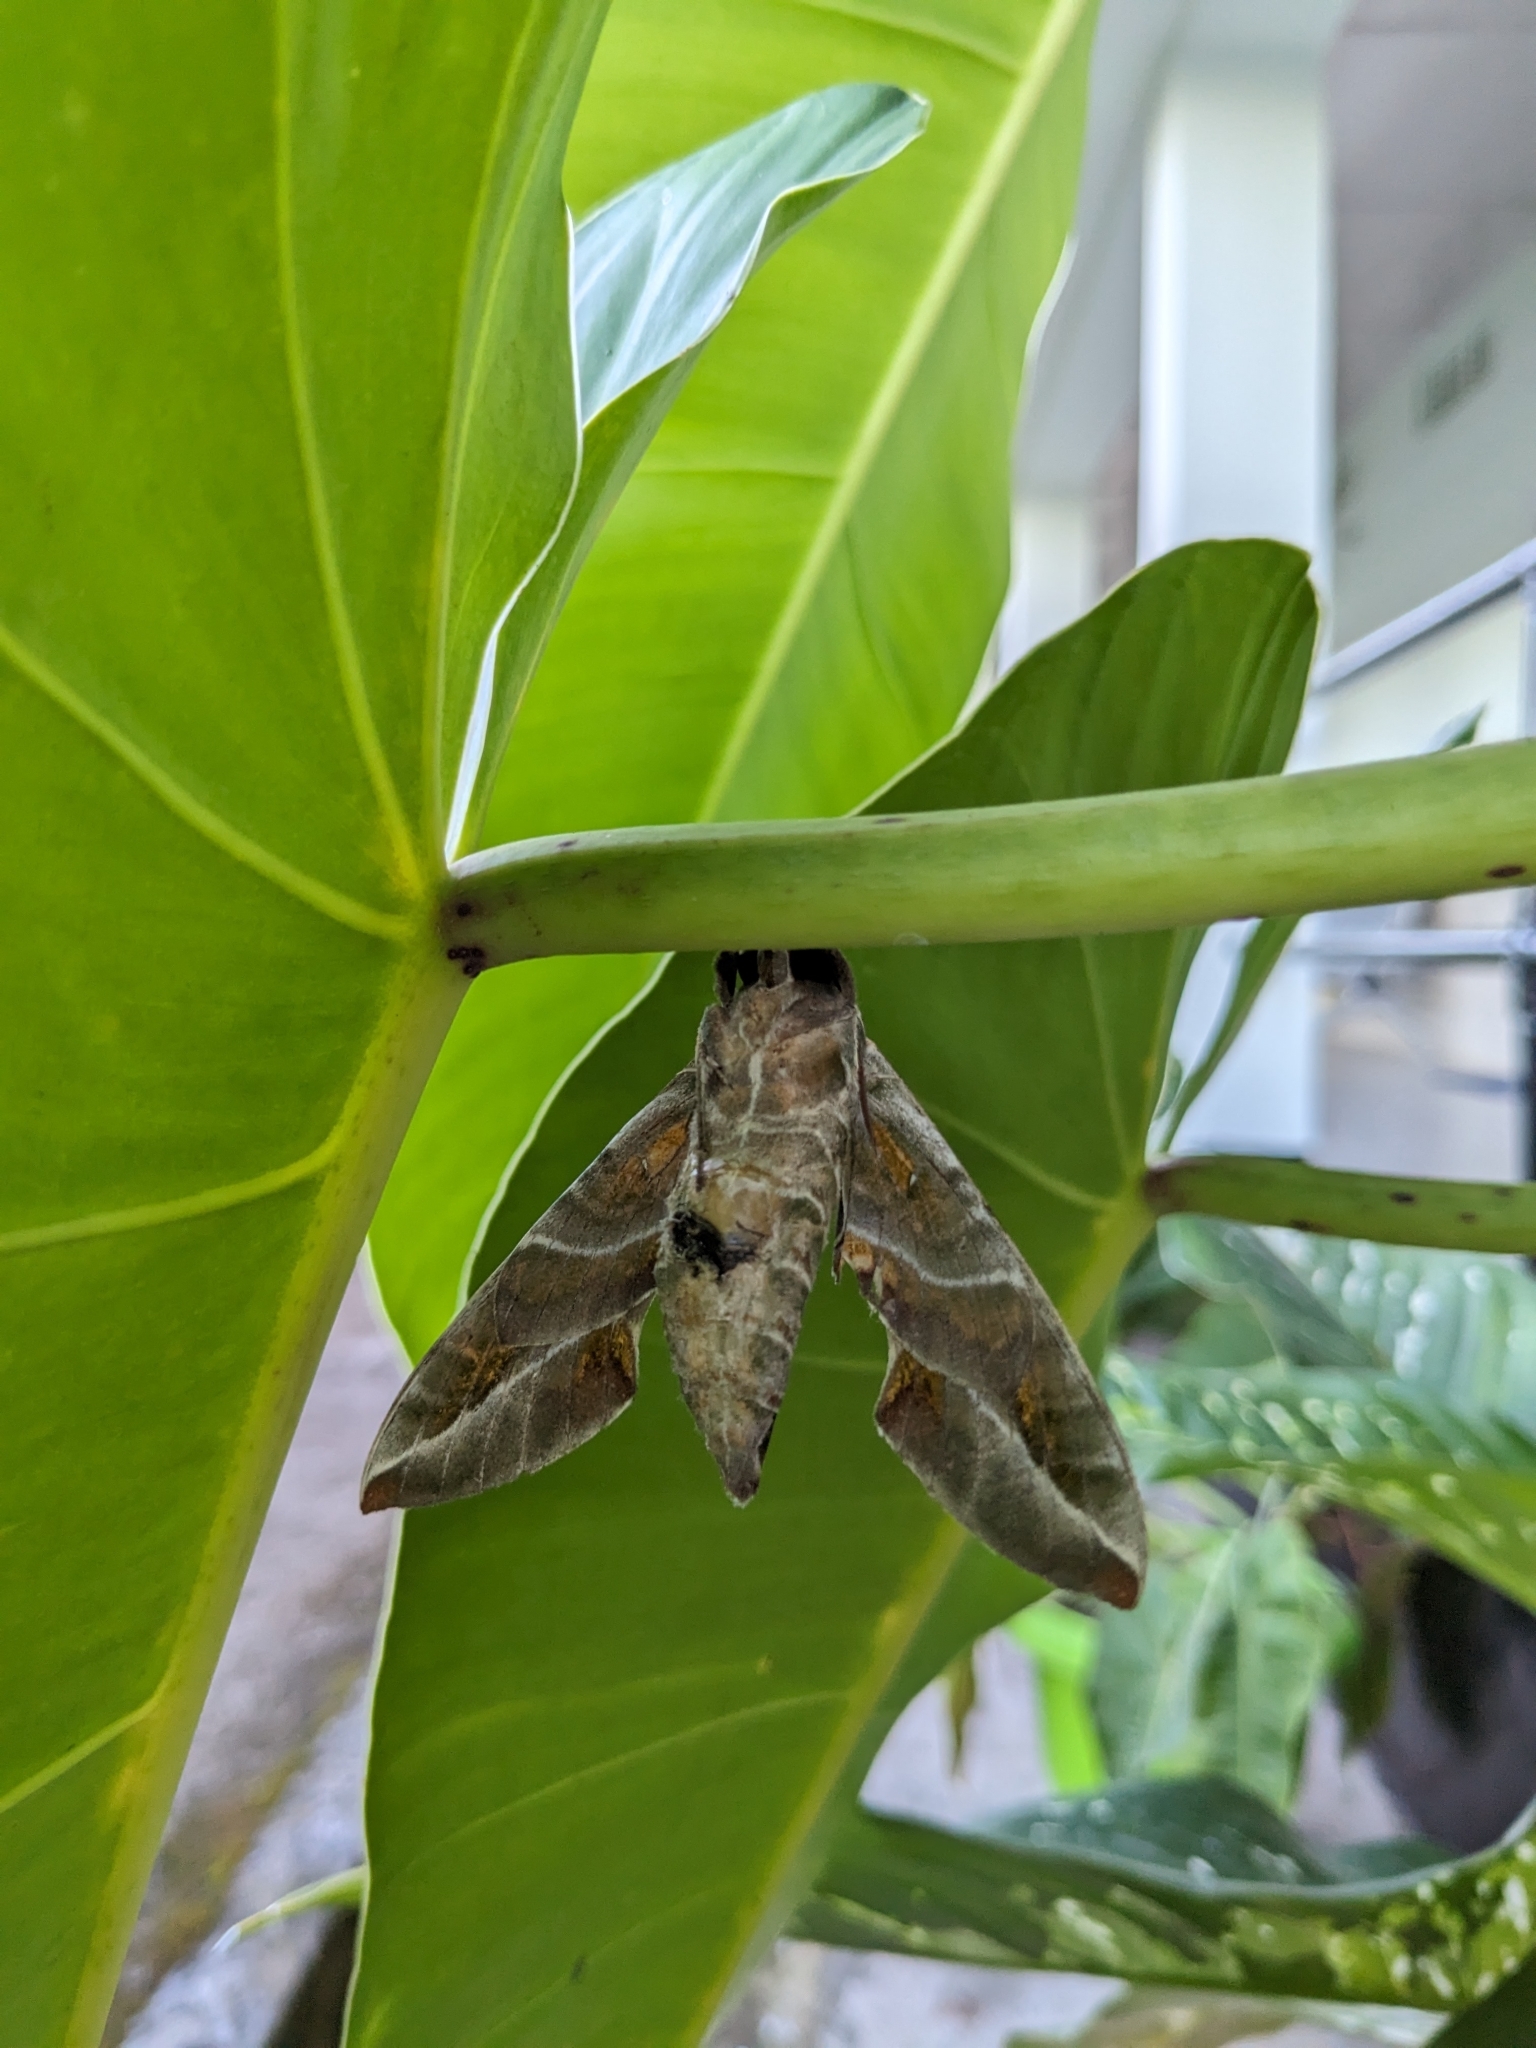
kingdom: Animalia
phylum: Arthropoda
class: Insecta
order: Lepidoptera
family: Sphingidae
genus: Daphnis
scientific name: Daphnis nerii
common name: Oleander hawk-moth
